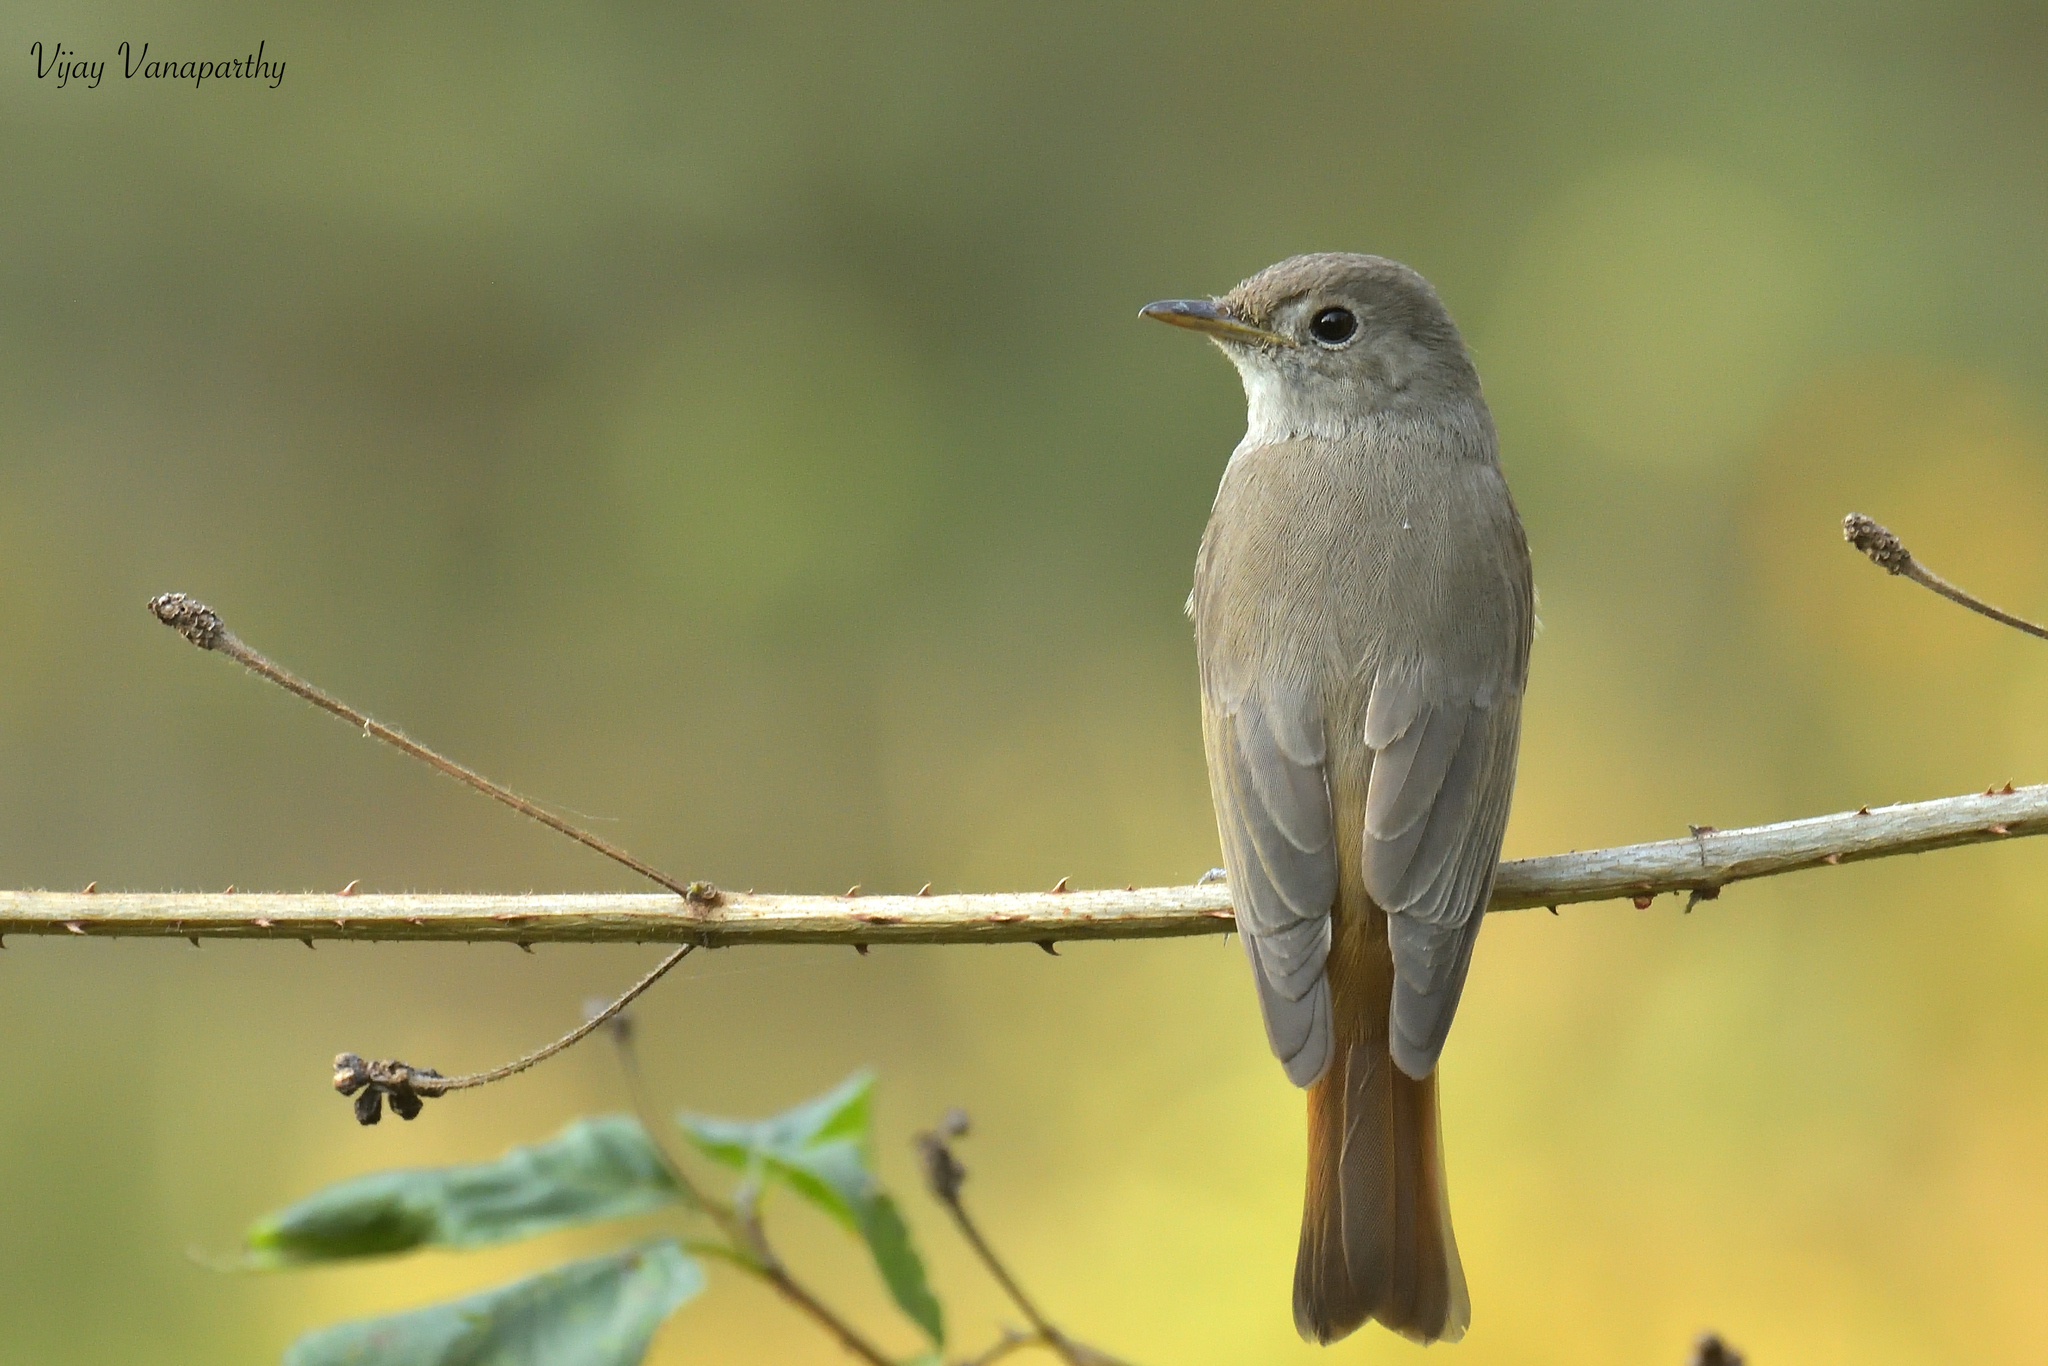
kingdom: Animalia
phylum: Chordata
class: Aves
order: Passeriformes
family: Muscicapidae
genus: Muscicapa
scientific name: Muscicapa ruficauda
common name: Rusty-tailed flycatcher
